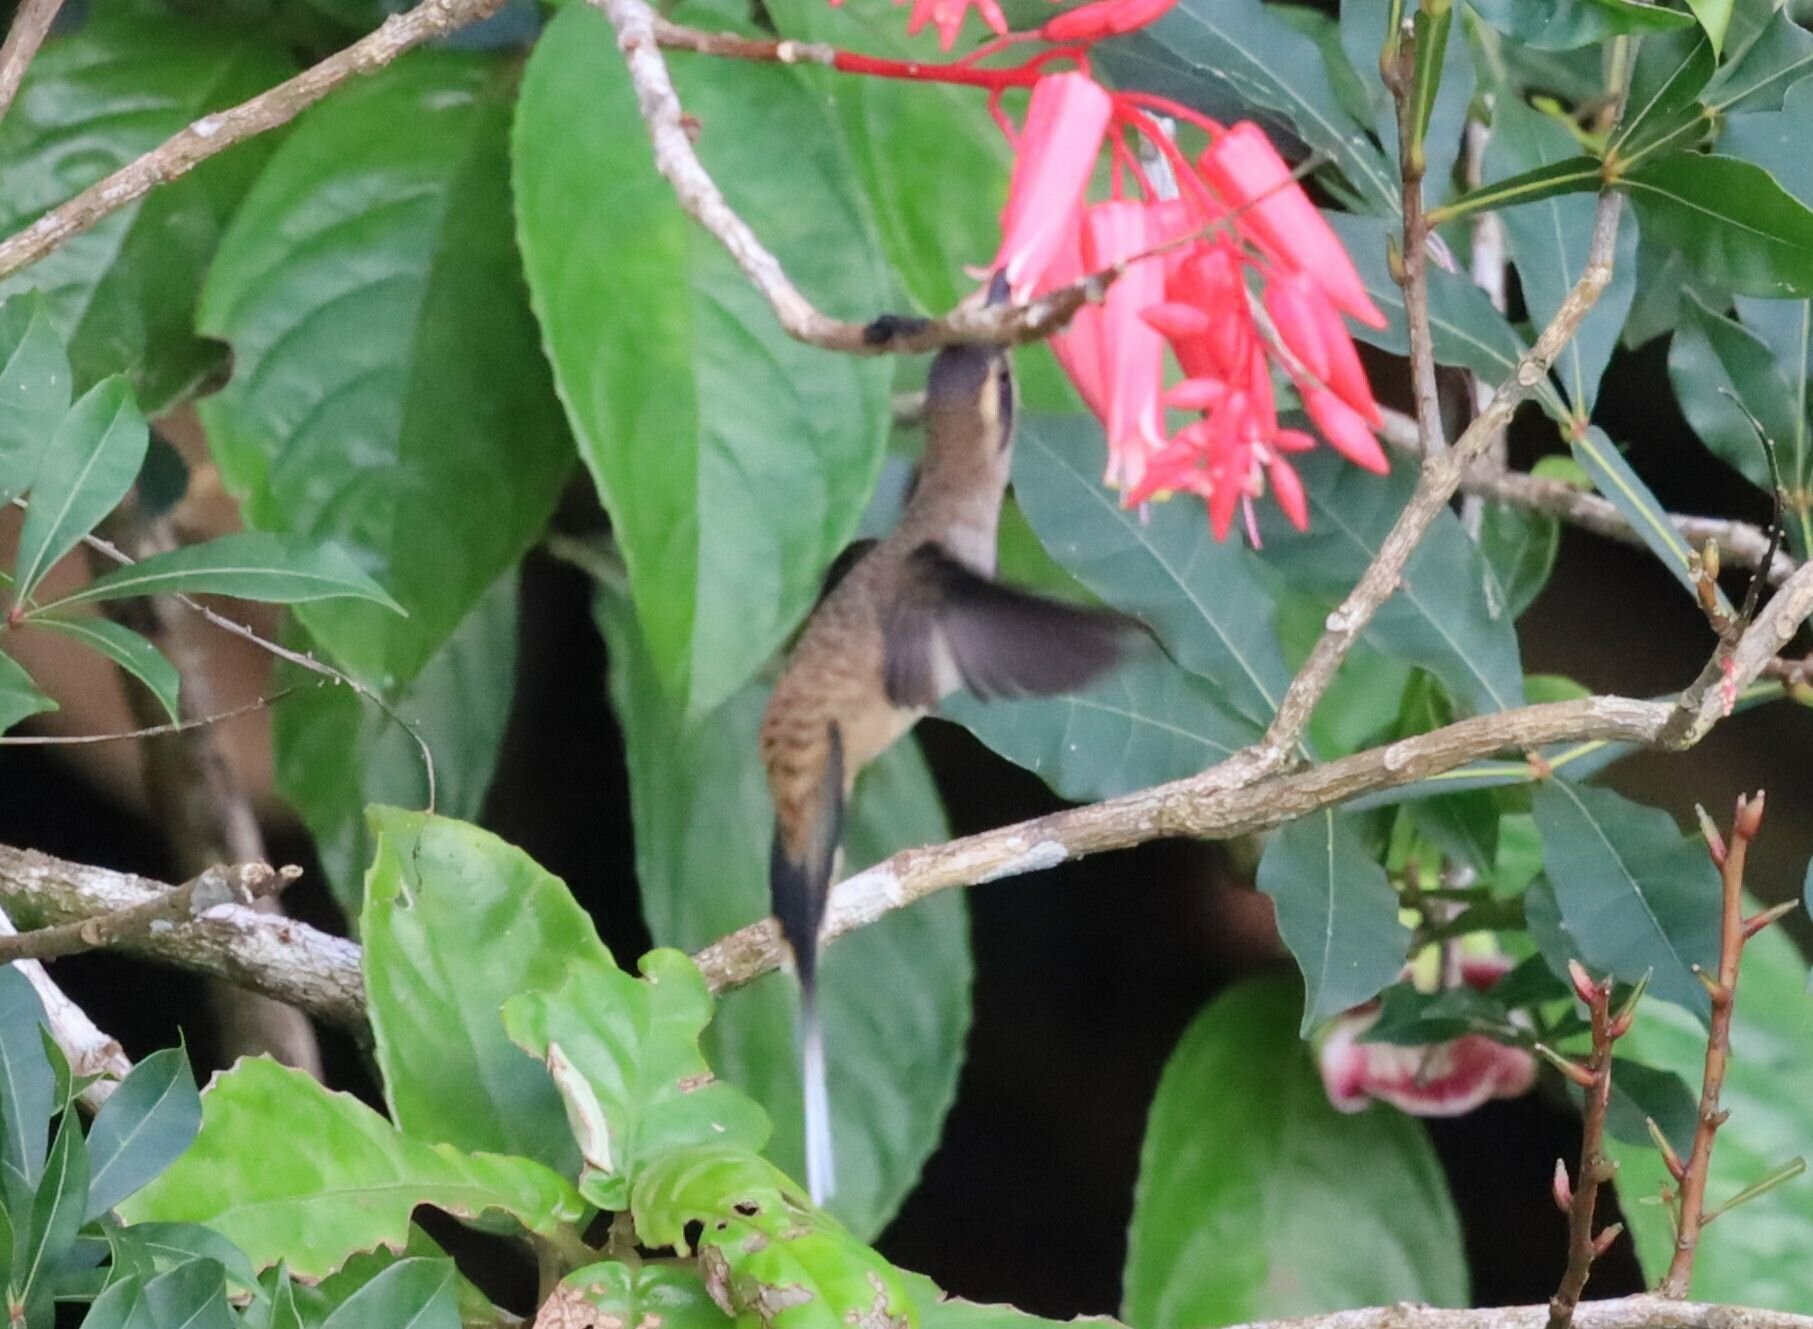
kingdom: Animalia
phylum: Chordata
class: Aves
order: Apodiformes
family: Trochilidae
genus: Phaethornis
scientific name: Phaethornis longirostris
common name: Long-billed hermit
